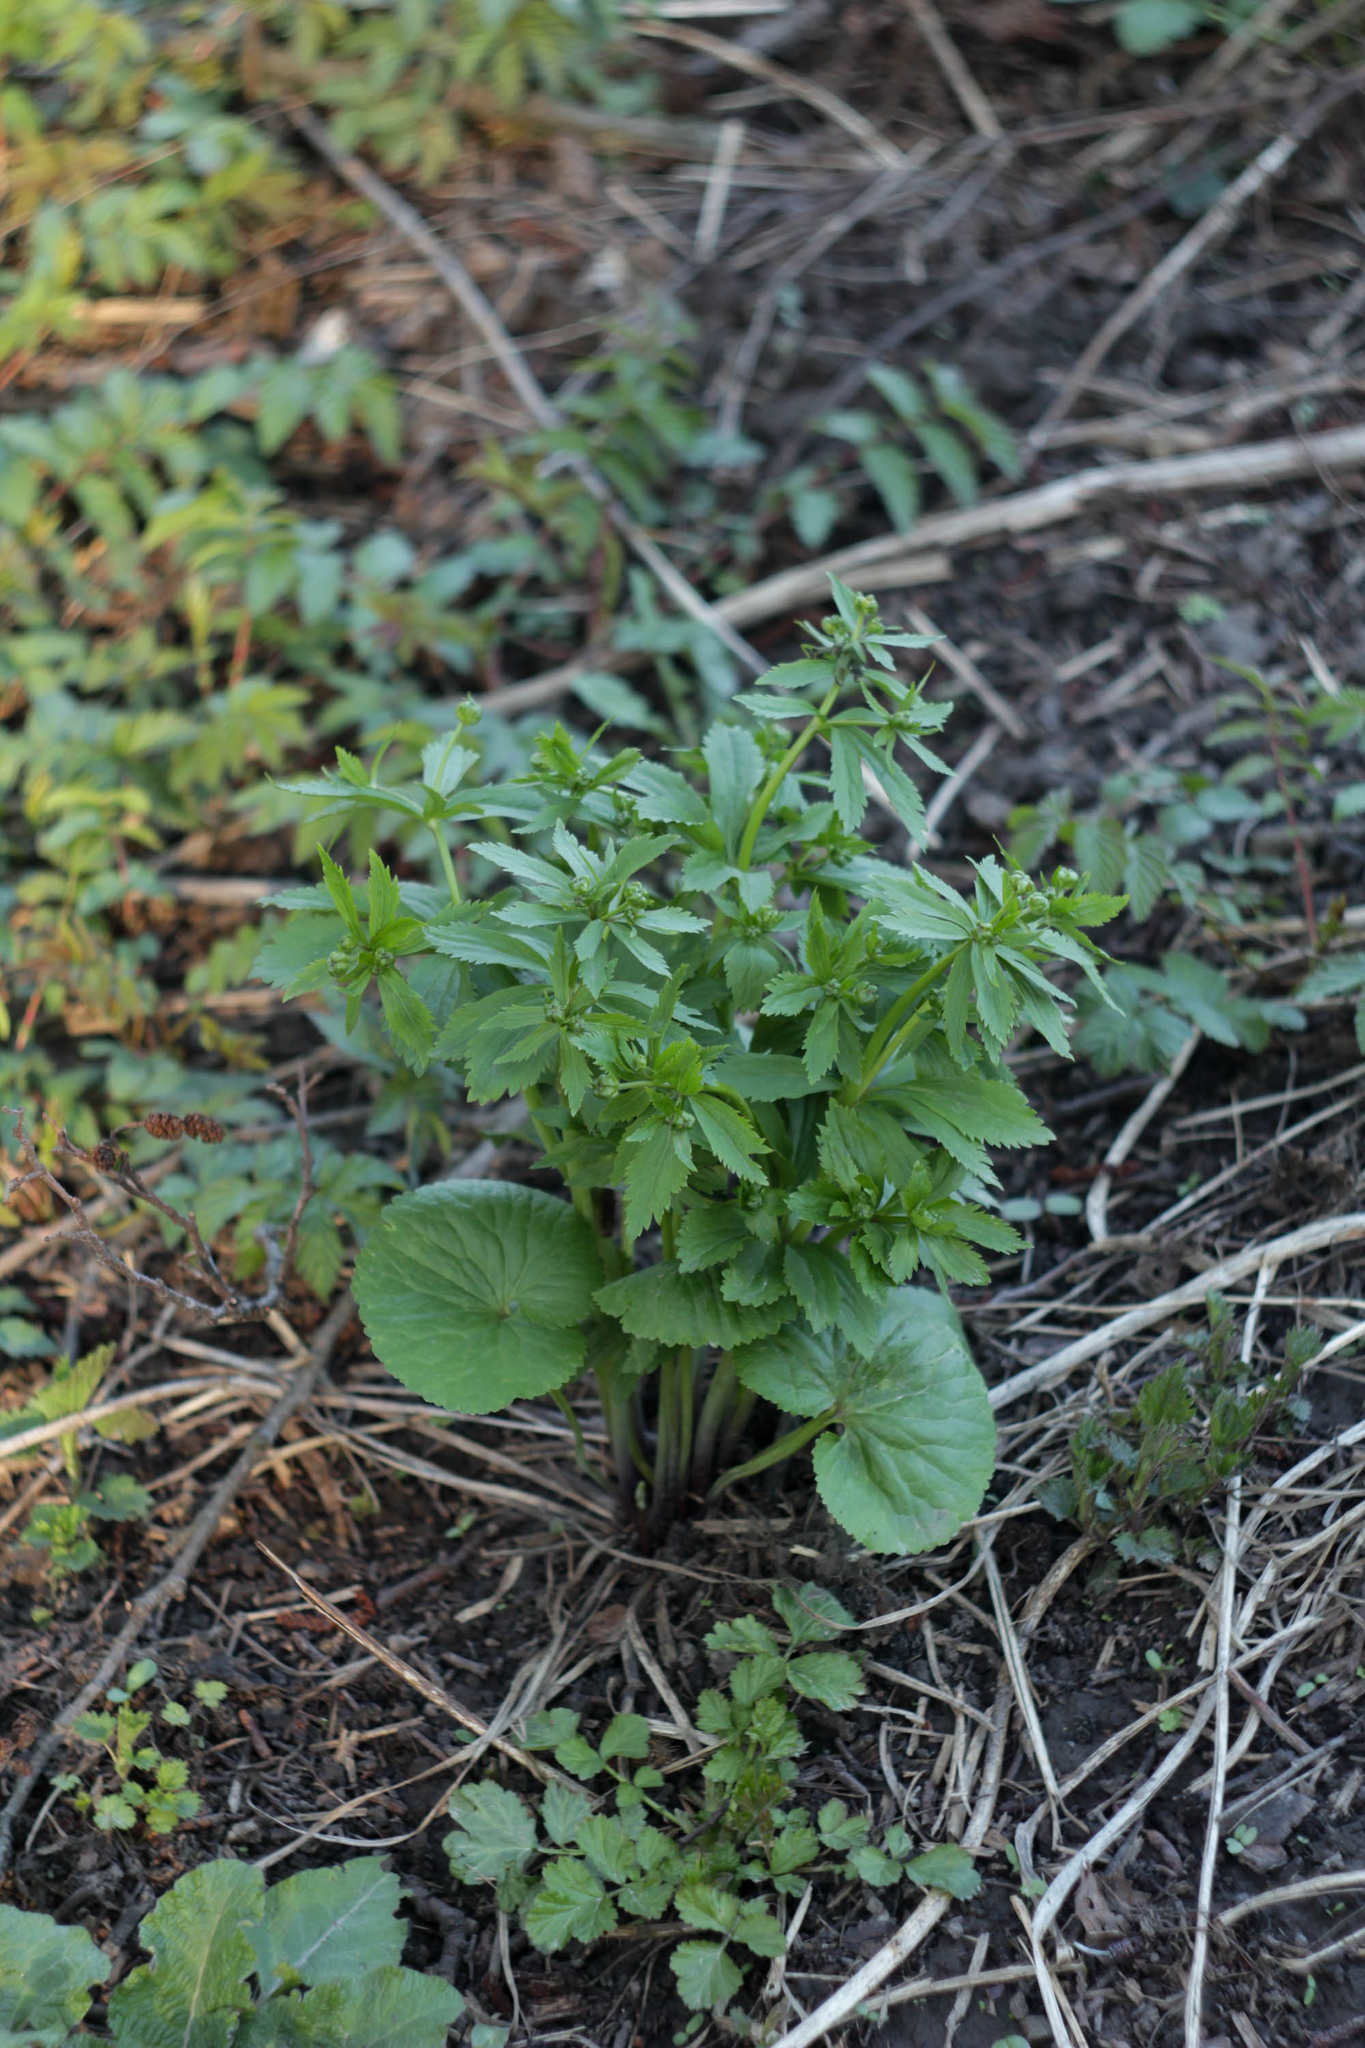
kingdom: Plantae
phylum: Tracheophyta
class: Magnoliopsida
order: Ranunculales
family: Ranunculaceae
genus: Ranunculus
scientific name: Ranunculus cassubicus
